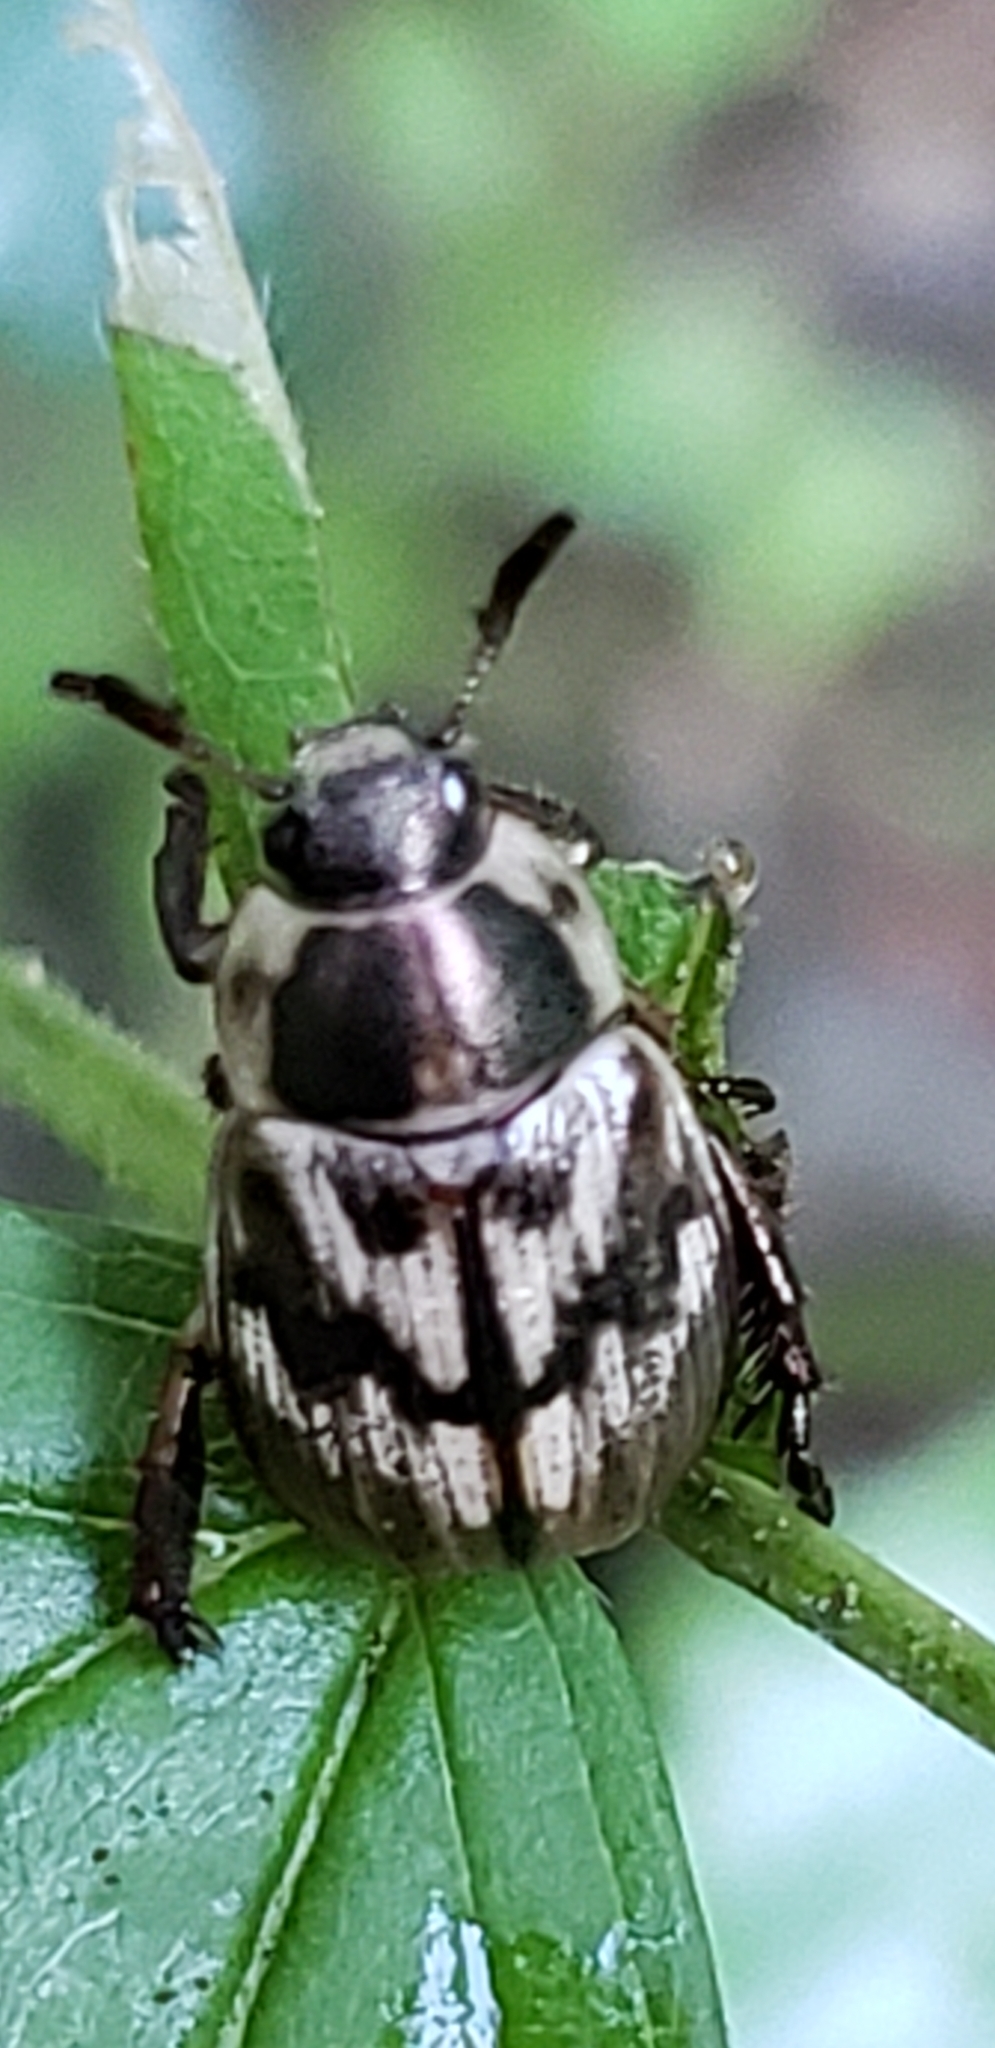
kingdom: Animalia
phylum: Arthropoda
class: Insecta
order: Coleoptera
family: Scarabaeidae
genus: Exomala
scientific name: Exomala orientalis
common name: Oriental beetle
